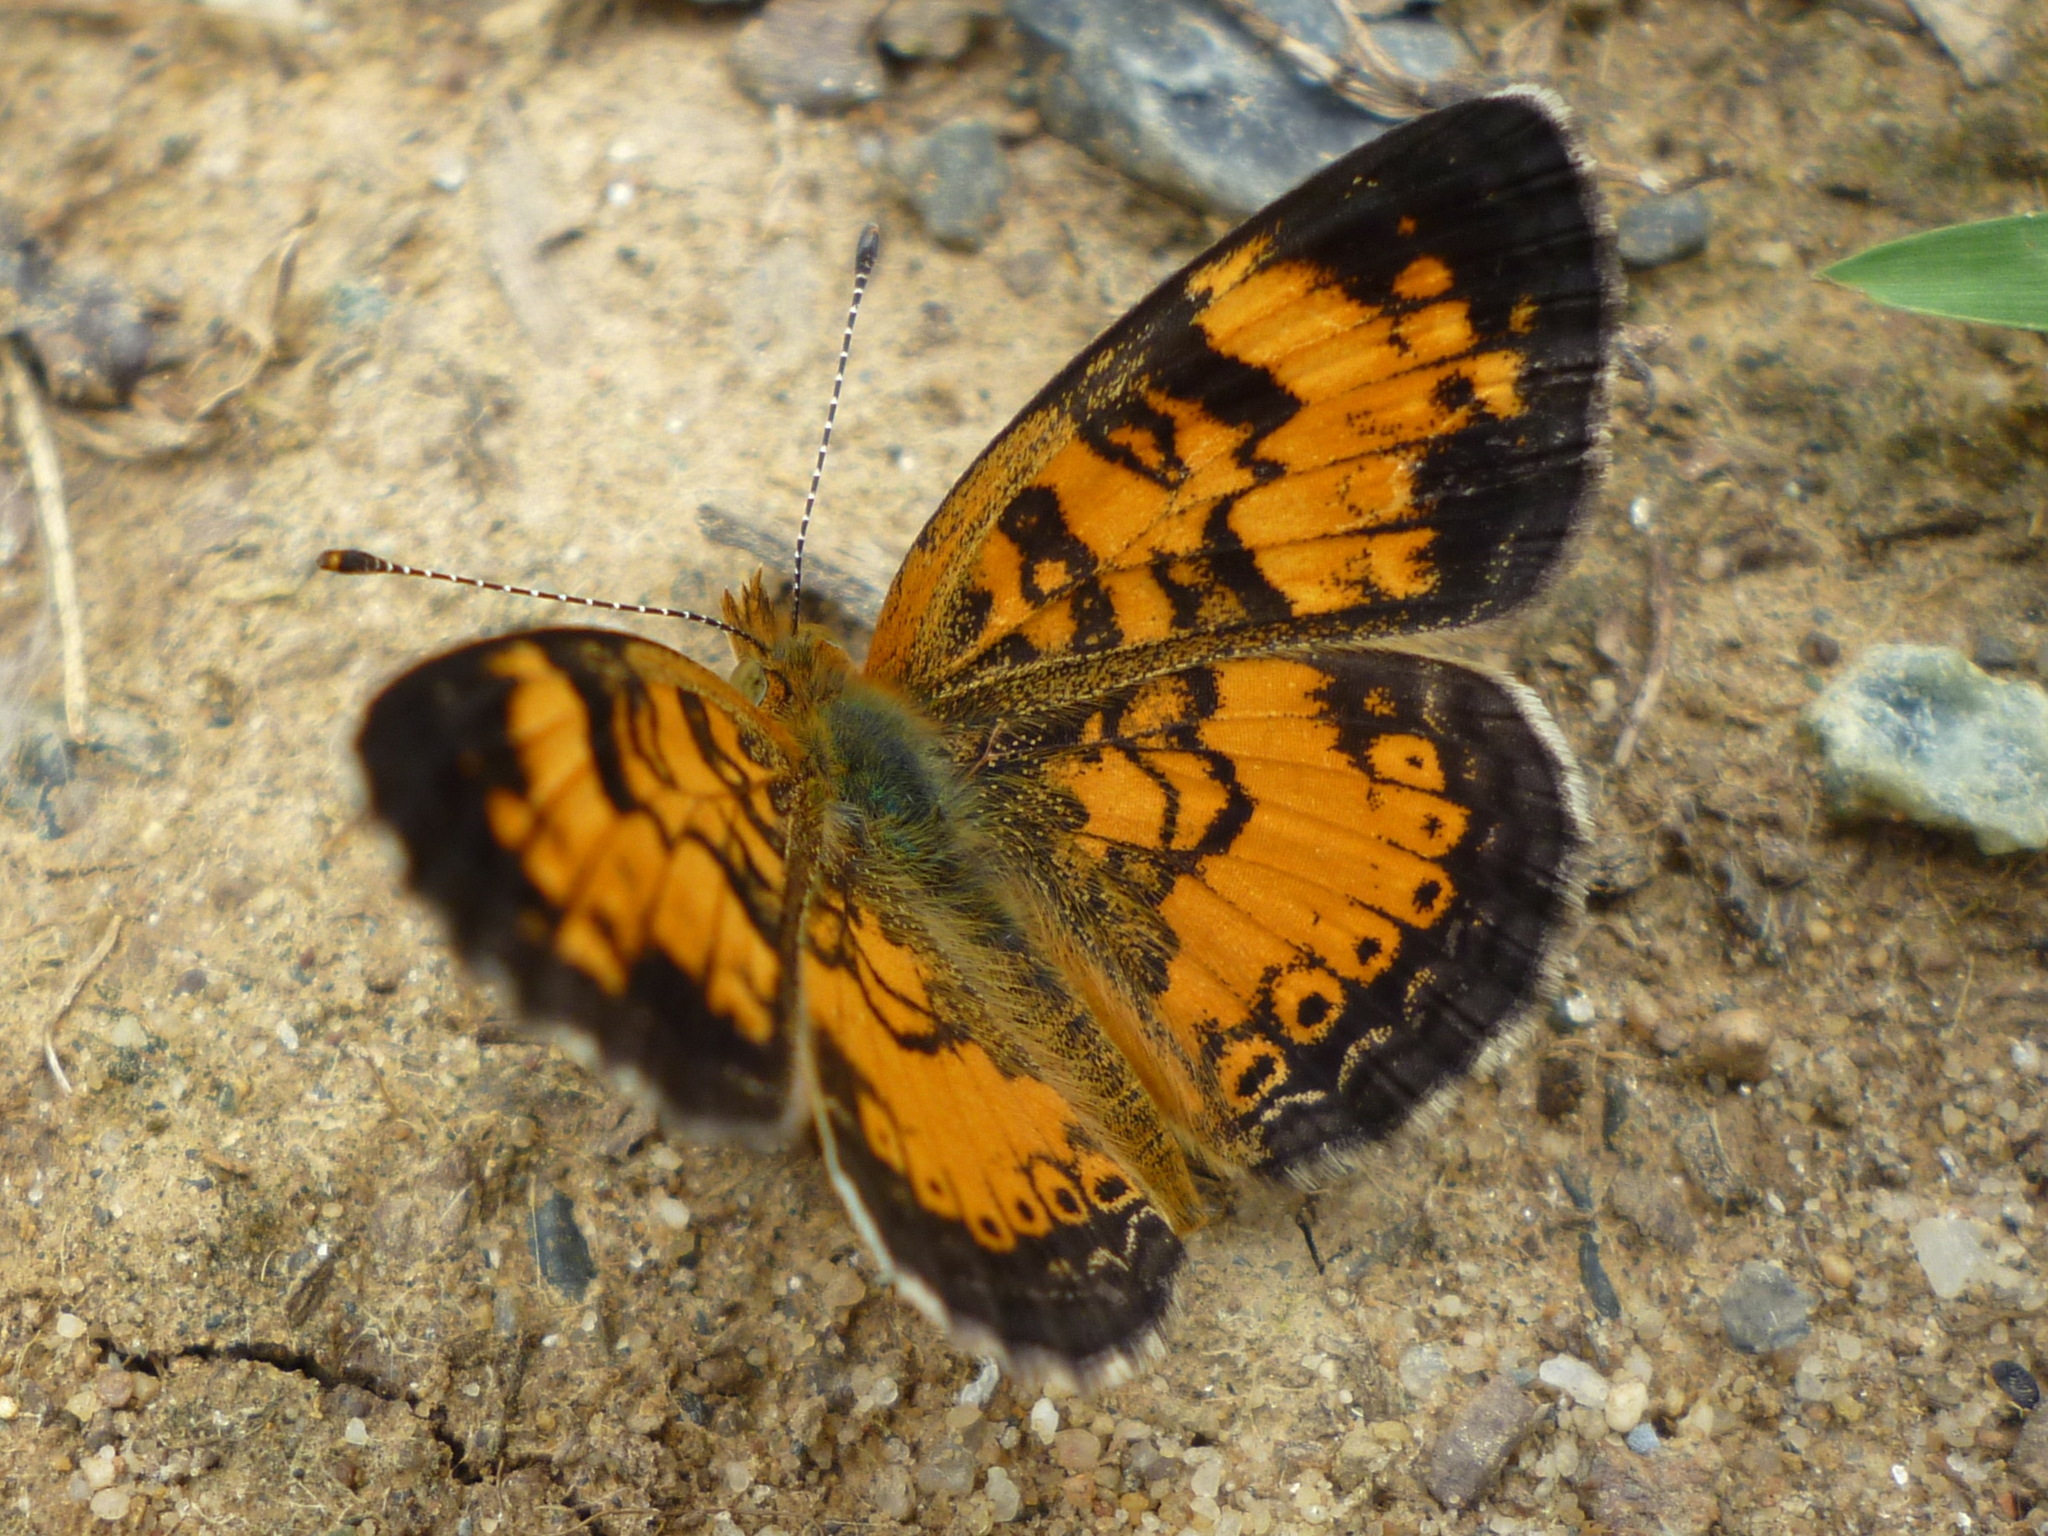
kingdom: Animalia
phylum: Arthropoda
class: Insecta
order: Lepidoptera
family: Nymphalidae
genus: Phyciodes
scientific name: Phyciodes tharos
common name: Pearl crescent
